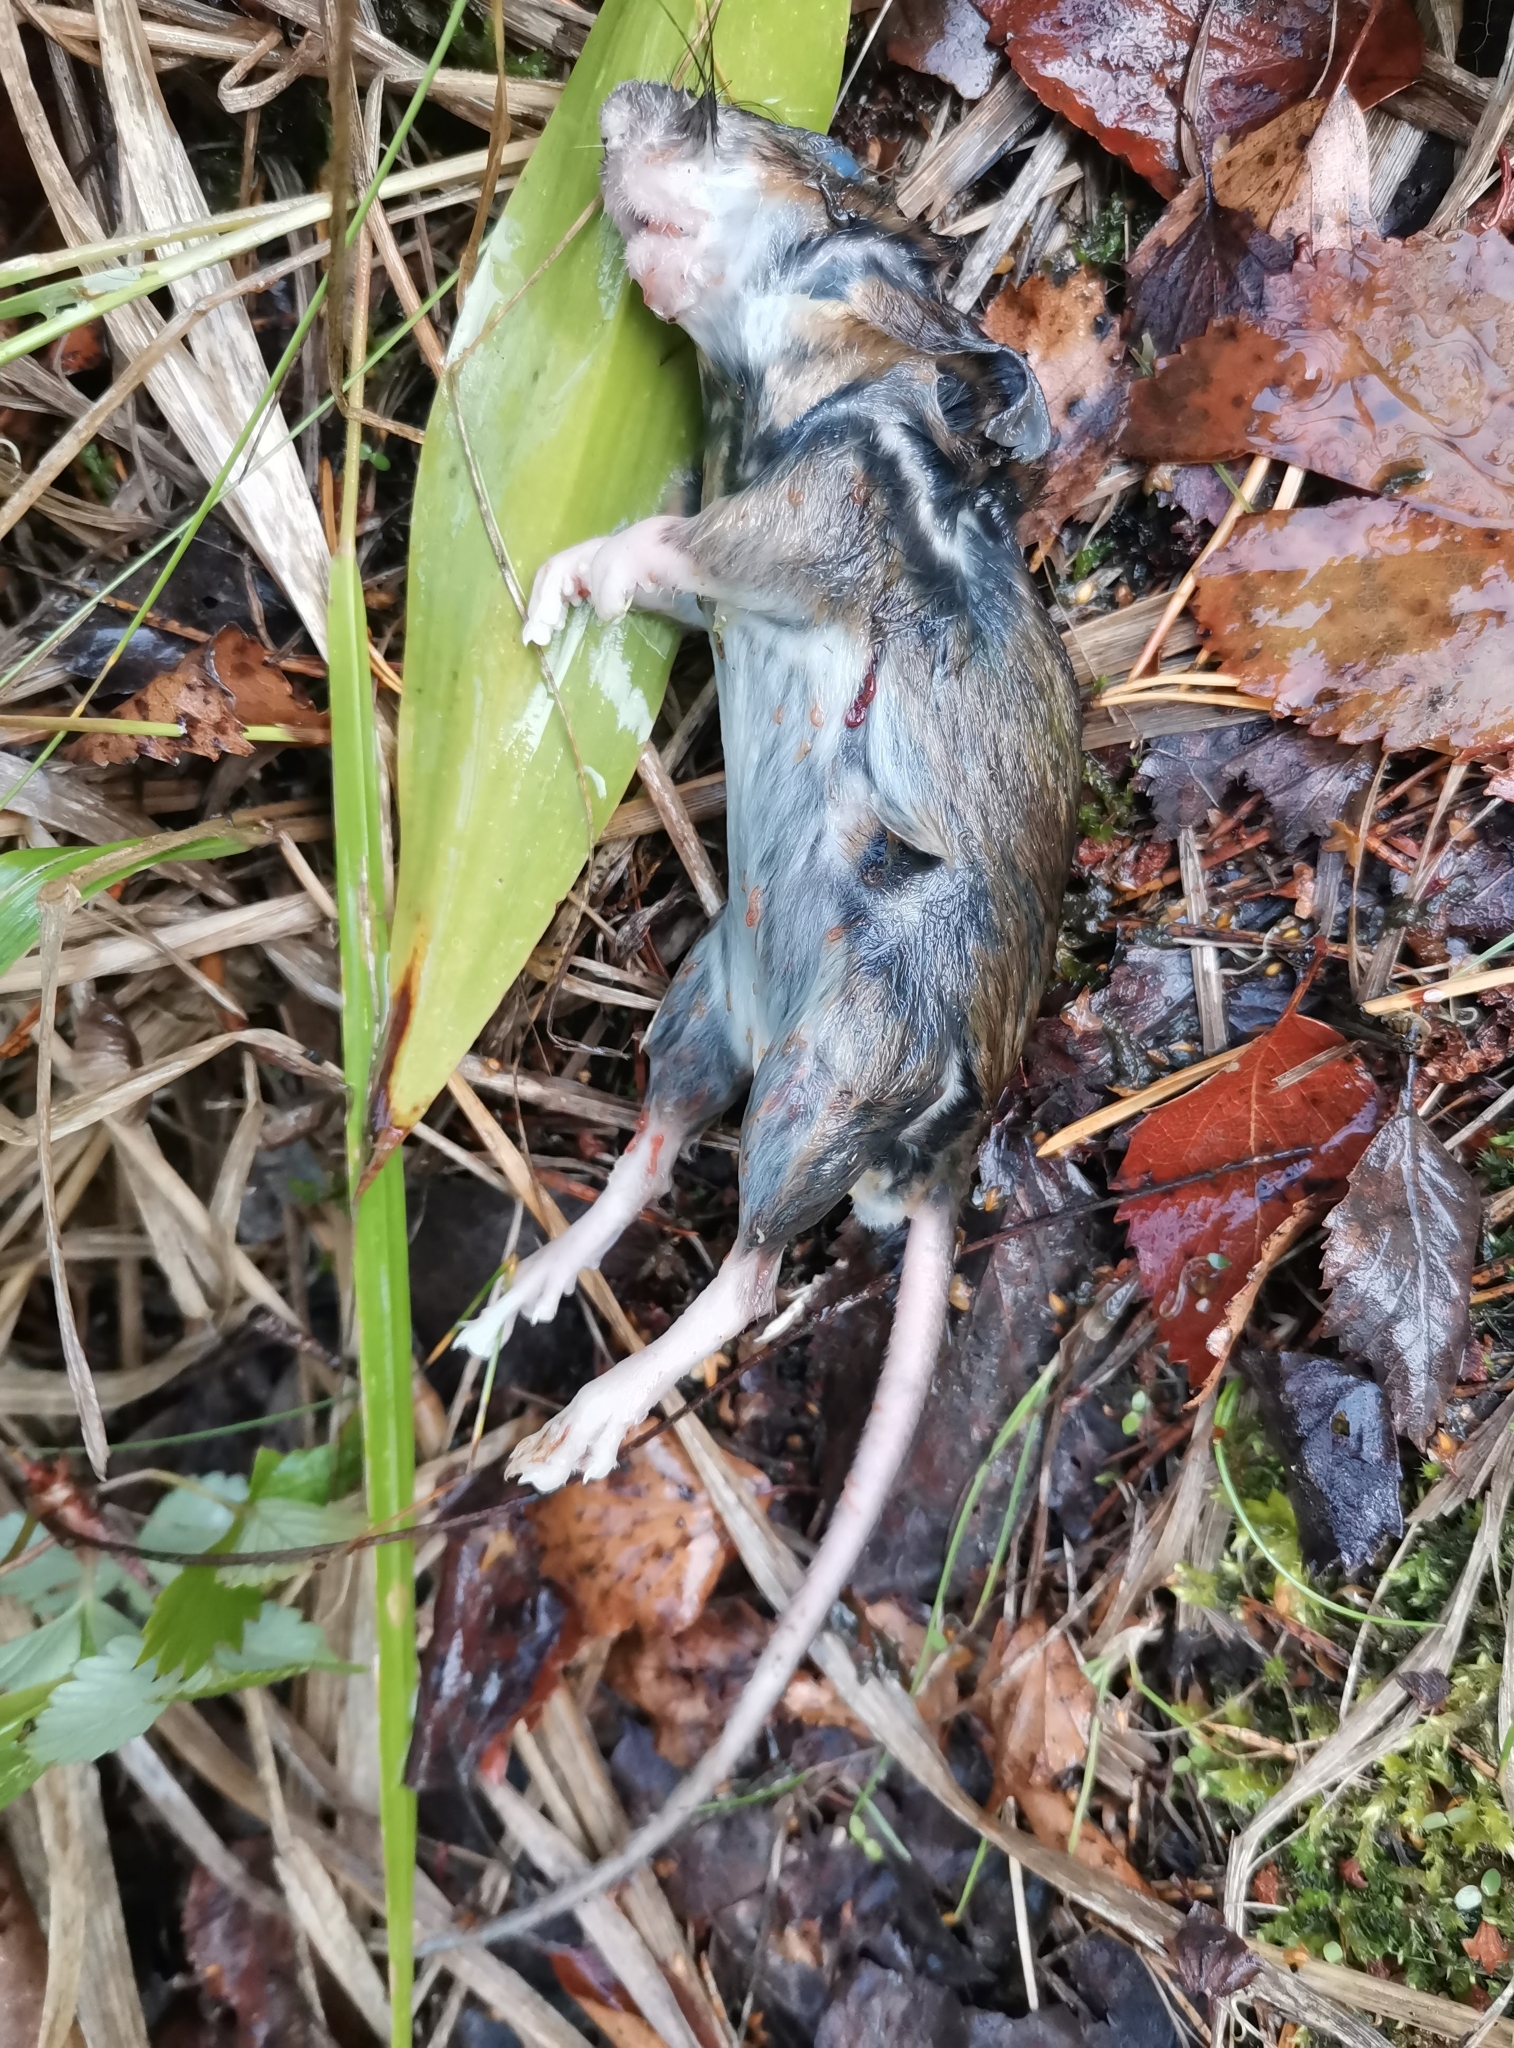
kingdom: Animalia
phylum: Chordata
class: Mammalia
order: Rodentia
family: Muridae
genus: Apodemus
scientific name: Apodemus flavicollis
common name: Yellow-necked field mouse
